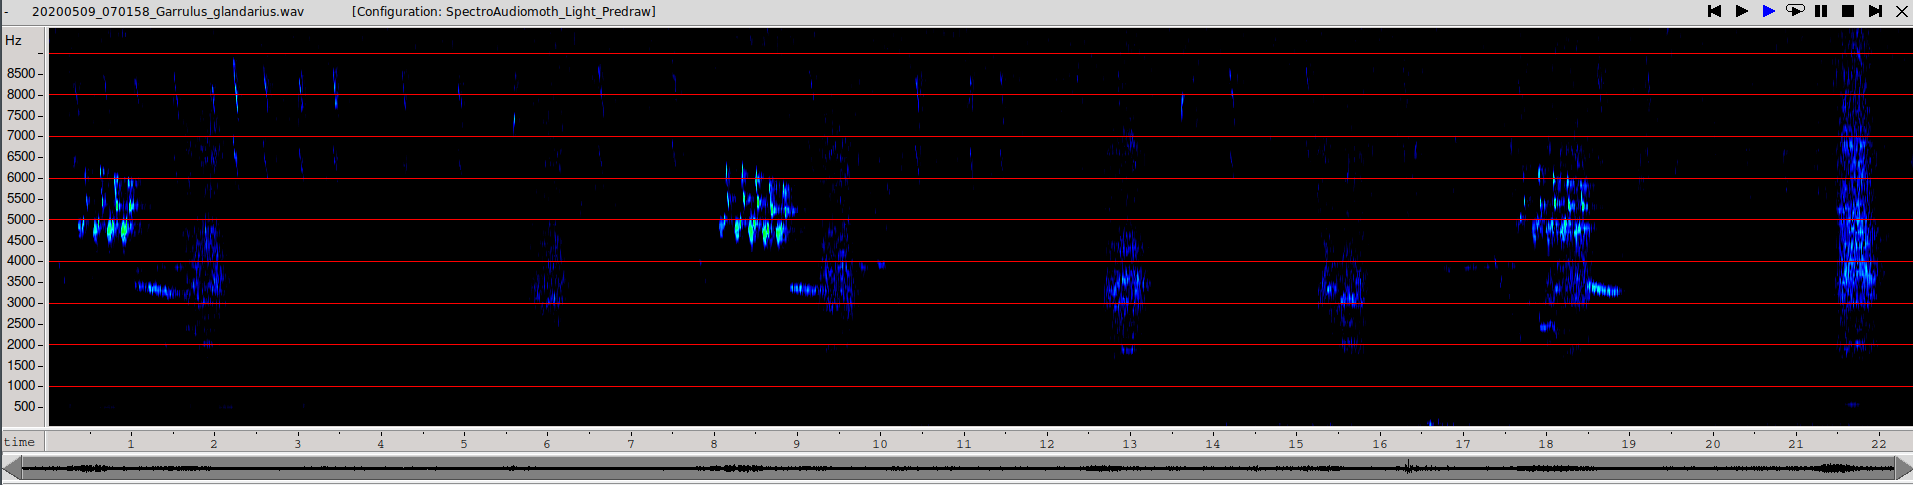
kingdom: Animalia
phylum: Chordata
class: Aves
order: Passeriformes
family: Corvidae
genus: Garrulus
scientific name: Garrulus glandarius
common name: Eurasian jay
